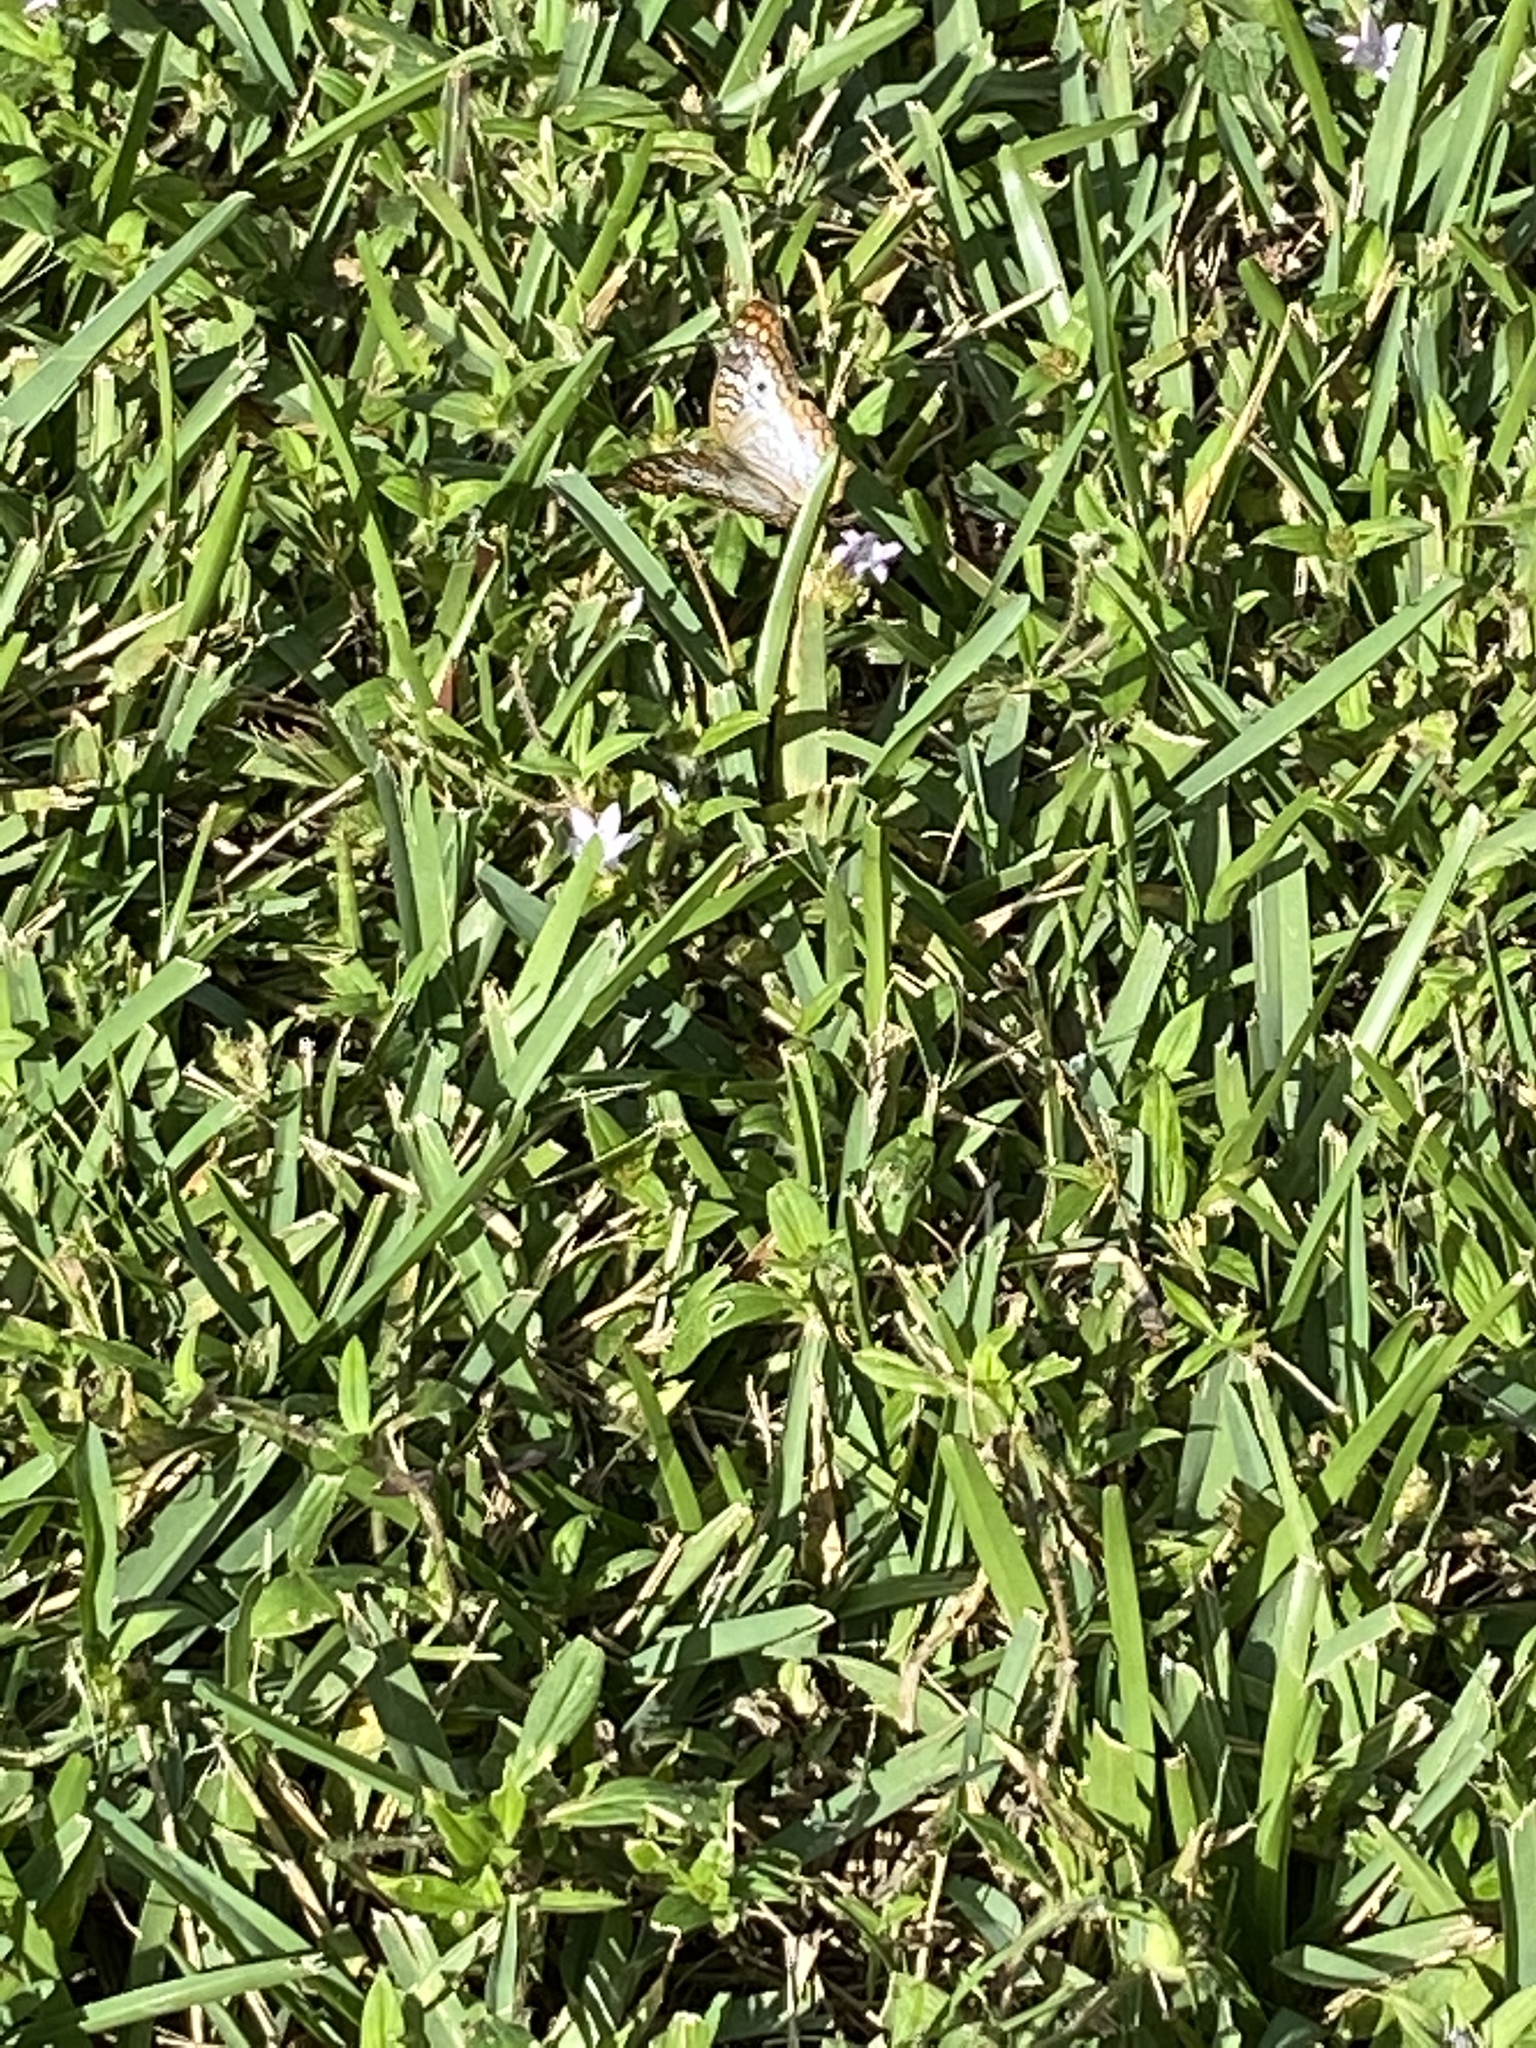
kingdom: Animalia
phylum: Arthropoda
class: Insecta
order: Lepidoptera
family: Nymphalidae
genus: Anartia
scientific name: Anartia jatrophae
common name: White peacock
